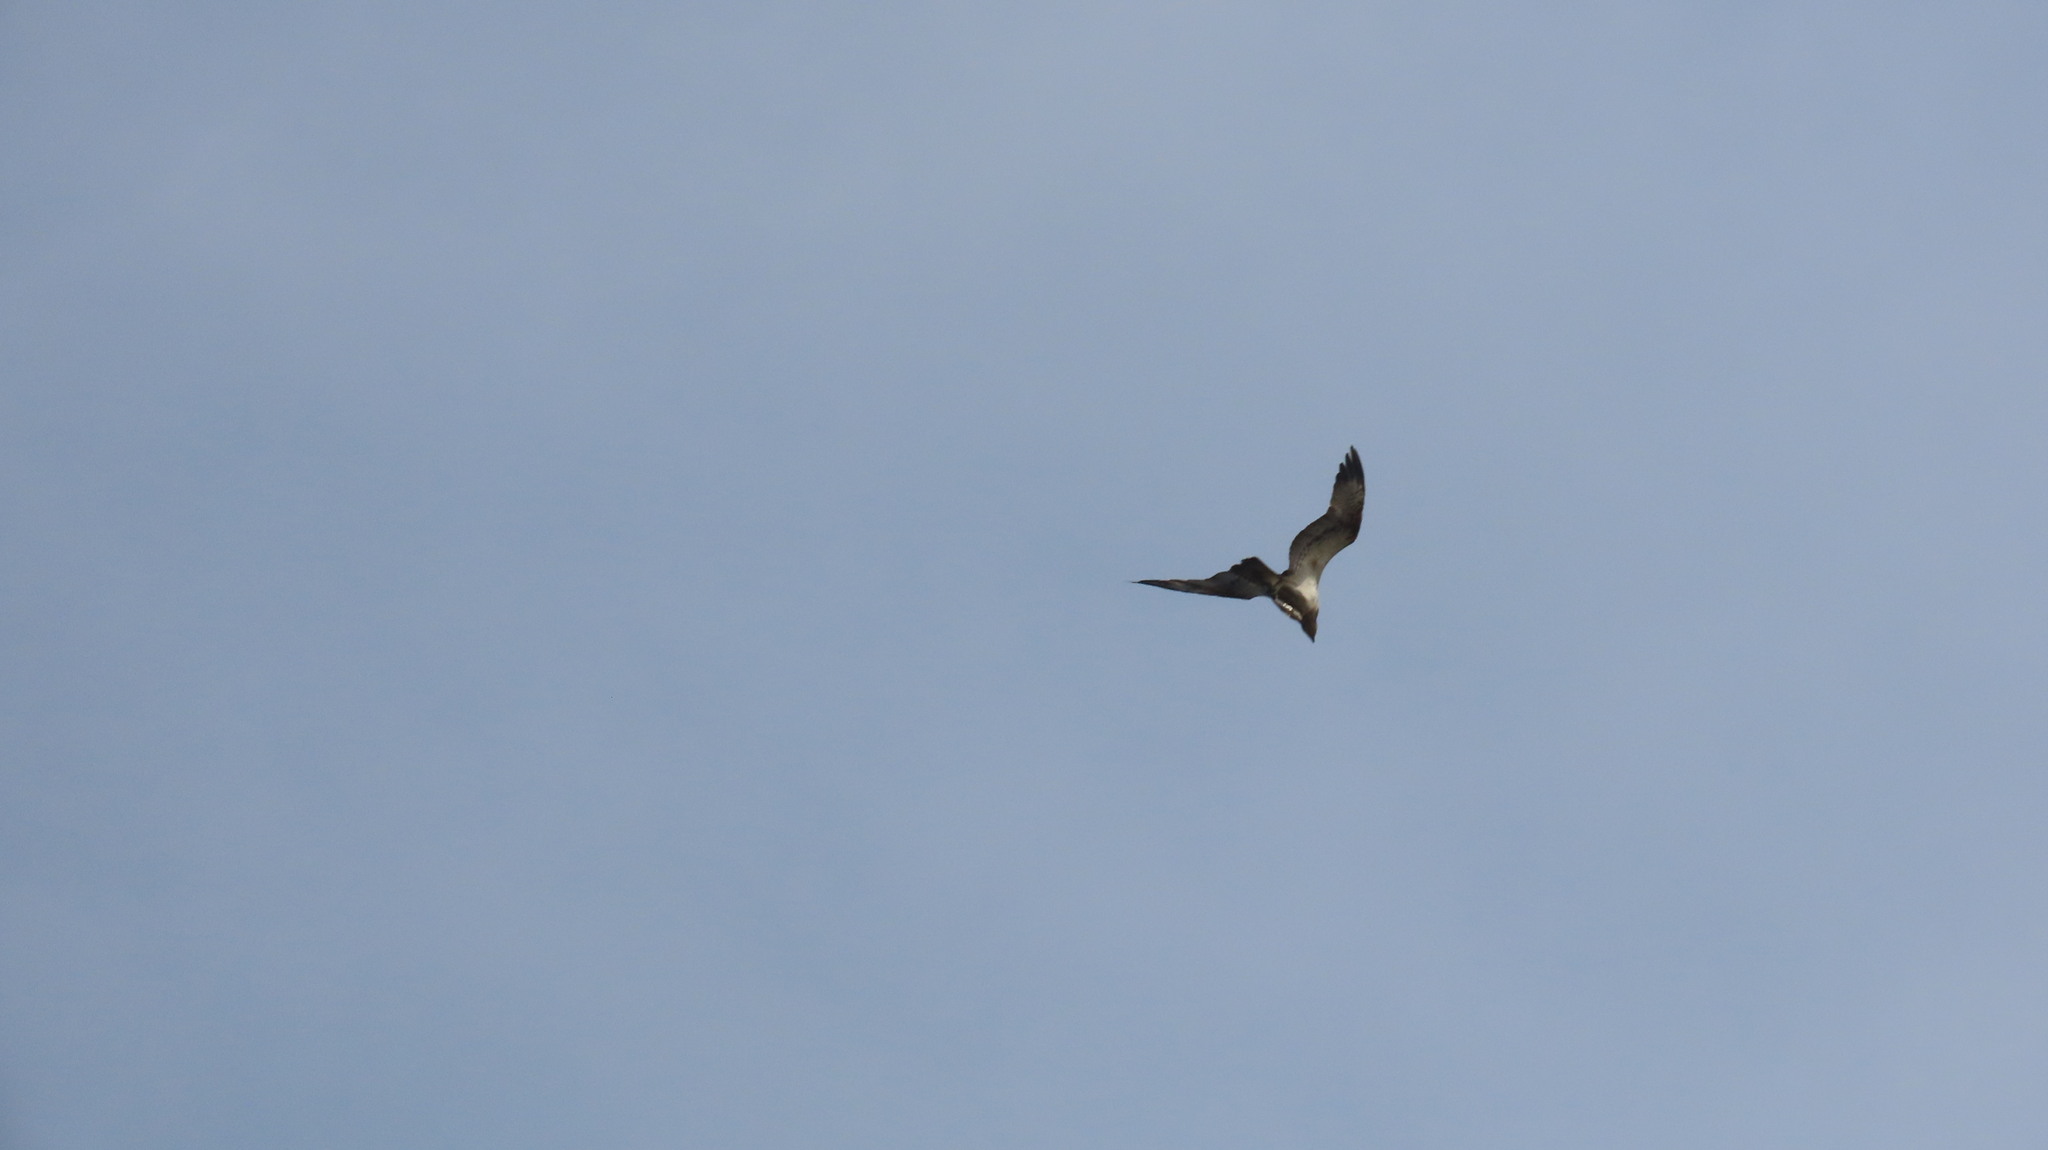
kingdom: Animalia
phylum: Chordata
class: Aves
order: Accipitriformes
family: Pandionidae
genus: Pandion
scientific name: Pandion haliaetus
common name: Osprey
